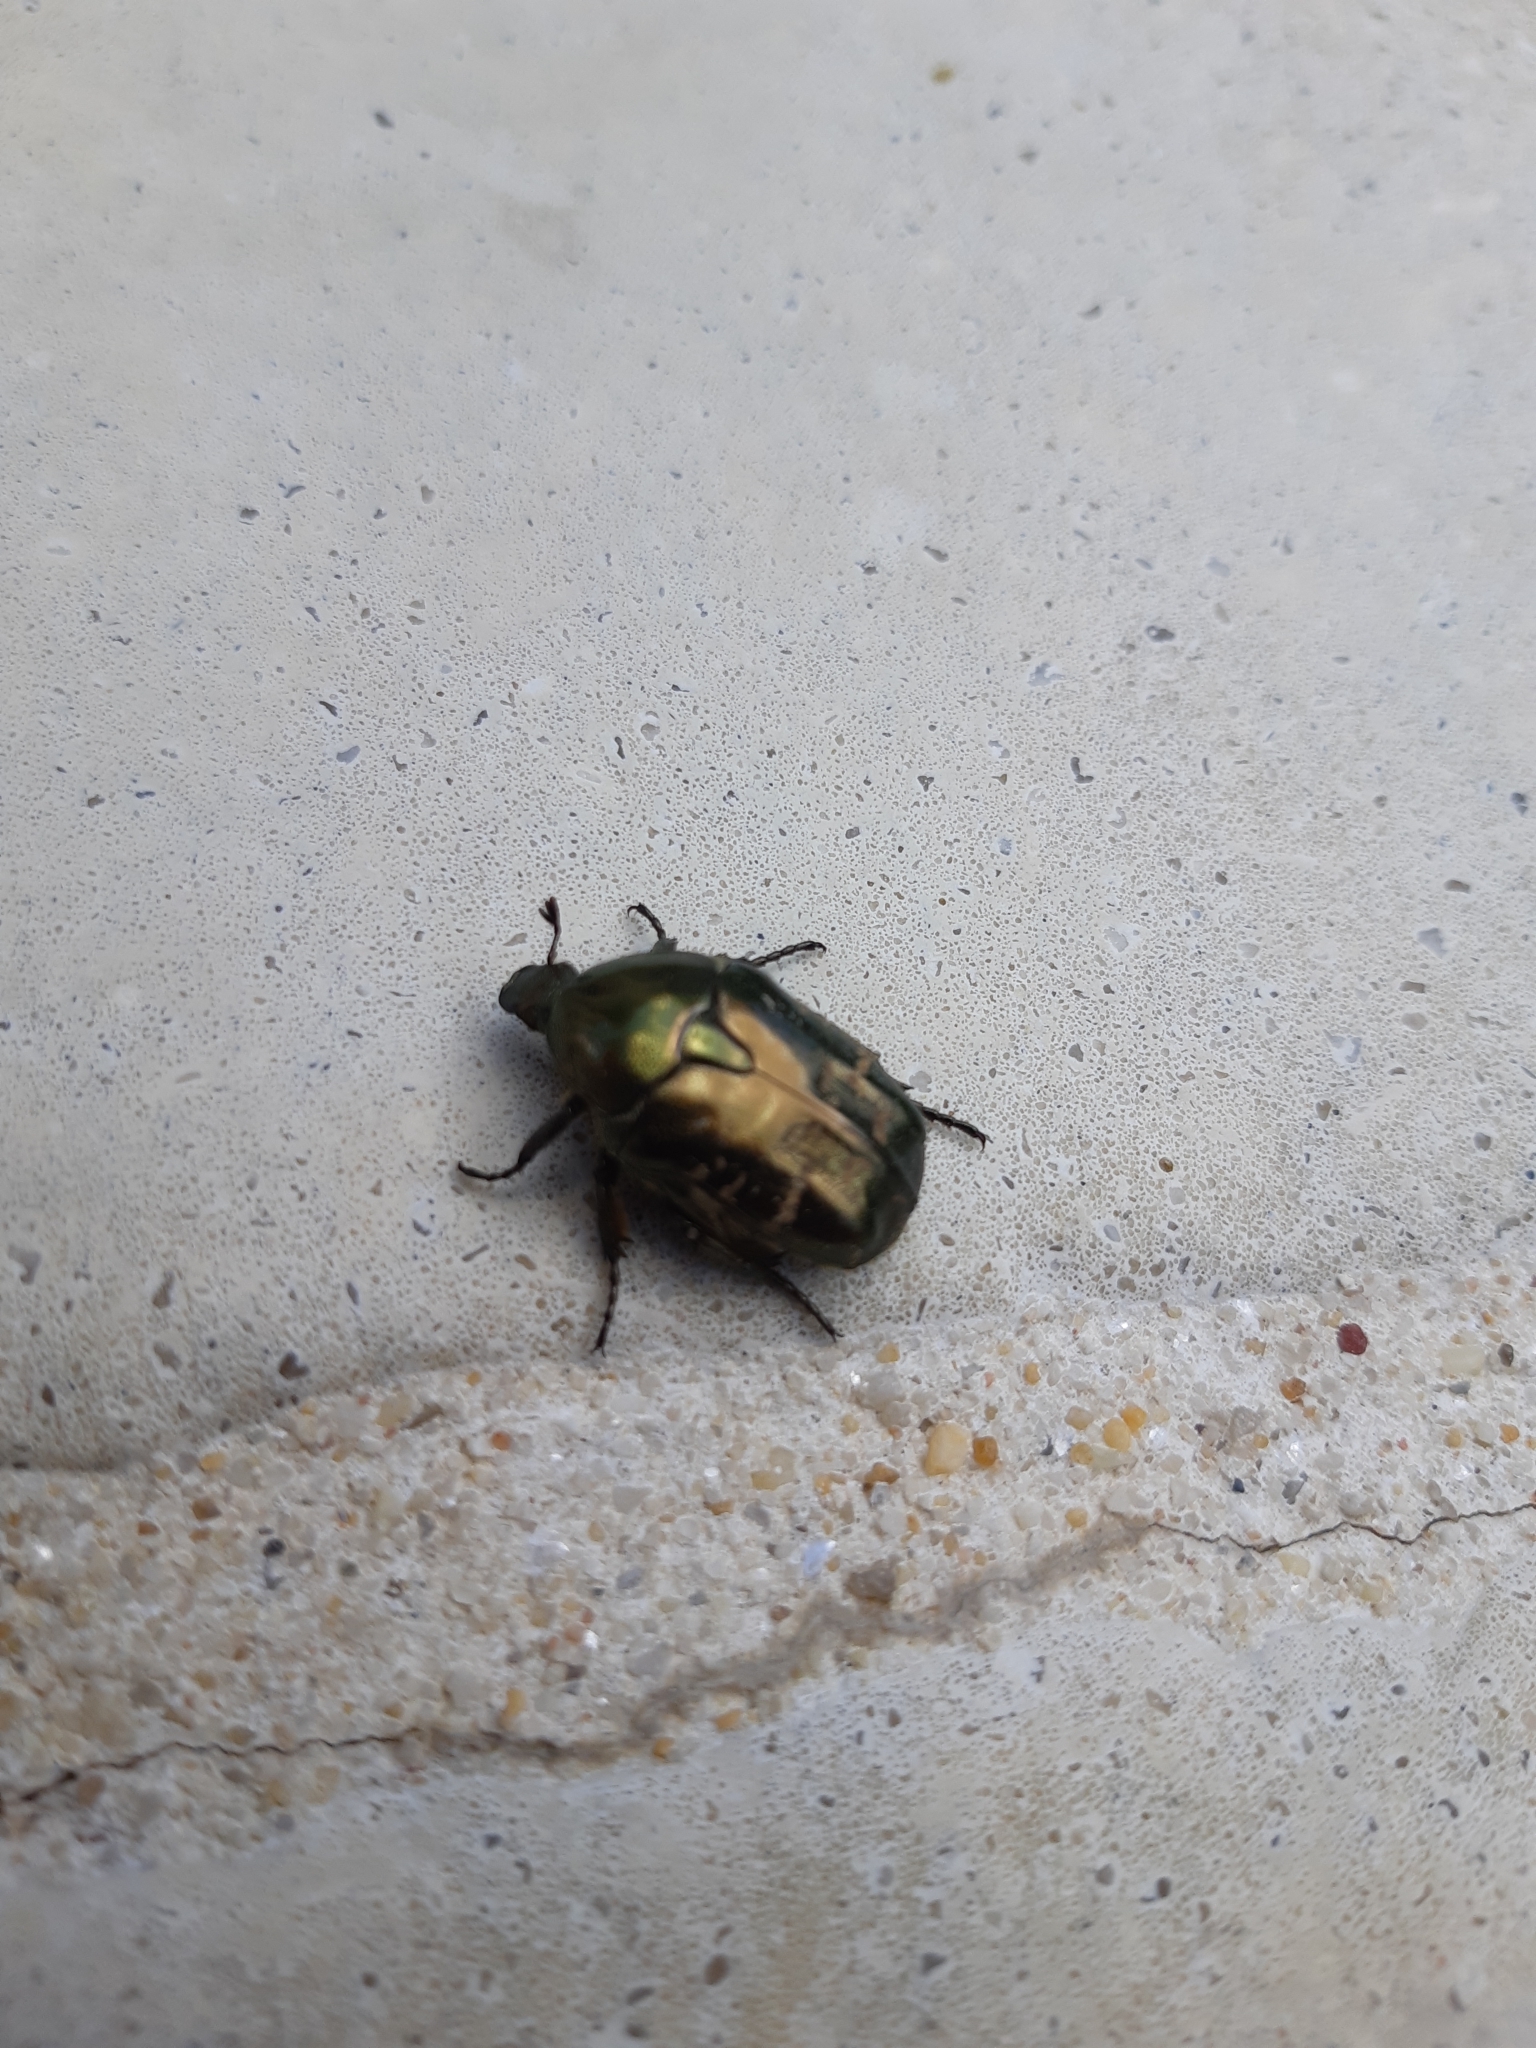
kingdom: Animalia
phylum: Arthropoda
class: Insecta
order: Coleoptera
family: Scarabaeidae
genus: Protaetia
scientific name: Protaetia cuprea
